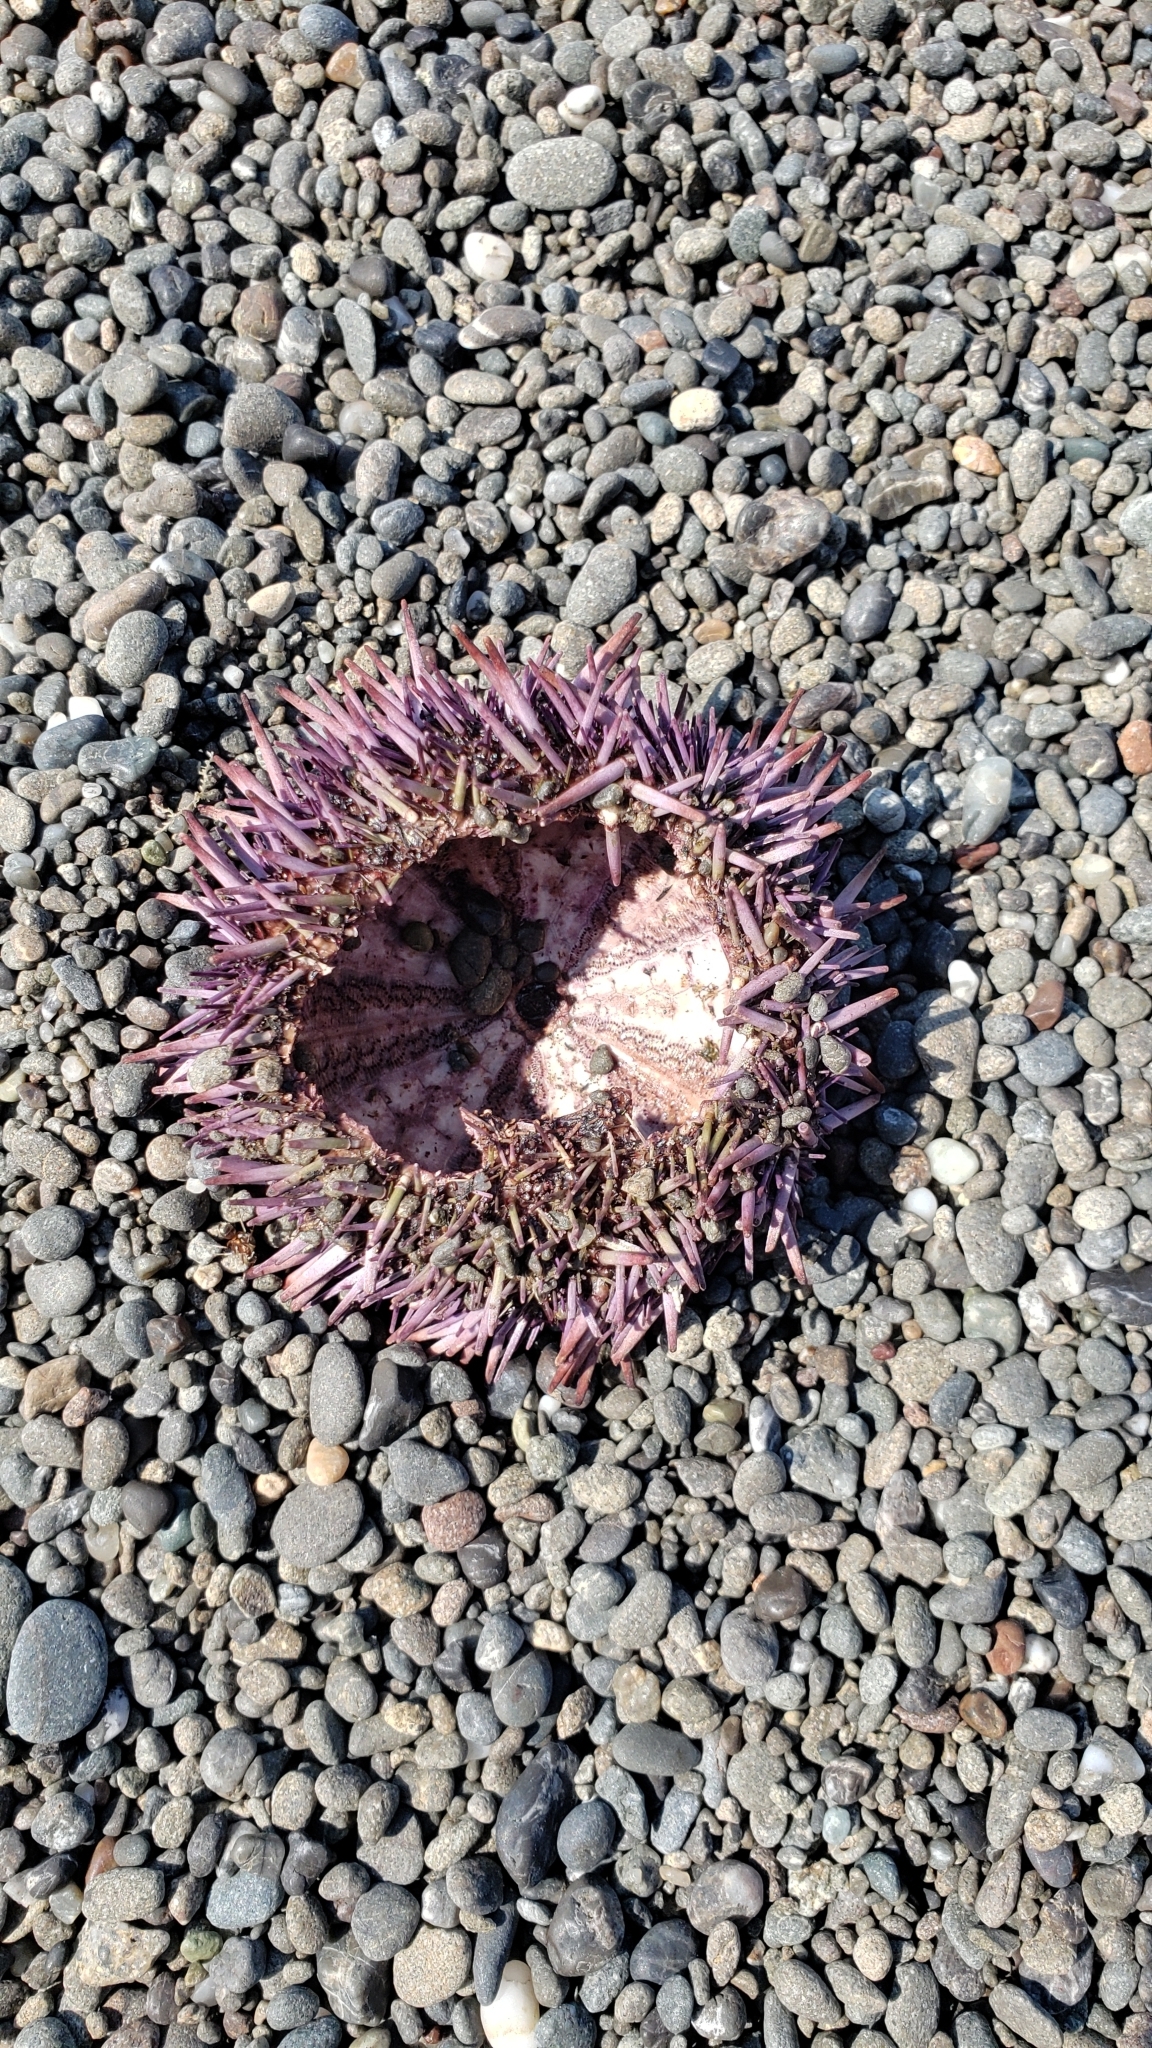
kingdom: Animalia
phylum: Echinodermata
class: Echinoidea
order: Camarodonta
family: Strongylocentrotidae
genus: Strongylocentrotus
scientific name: Strongylocentrotus purpuratus
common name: Purple sea urchin
